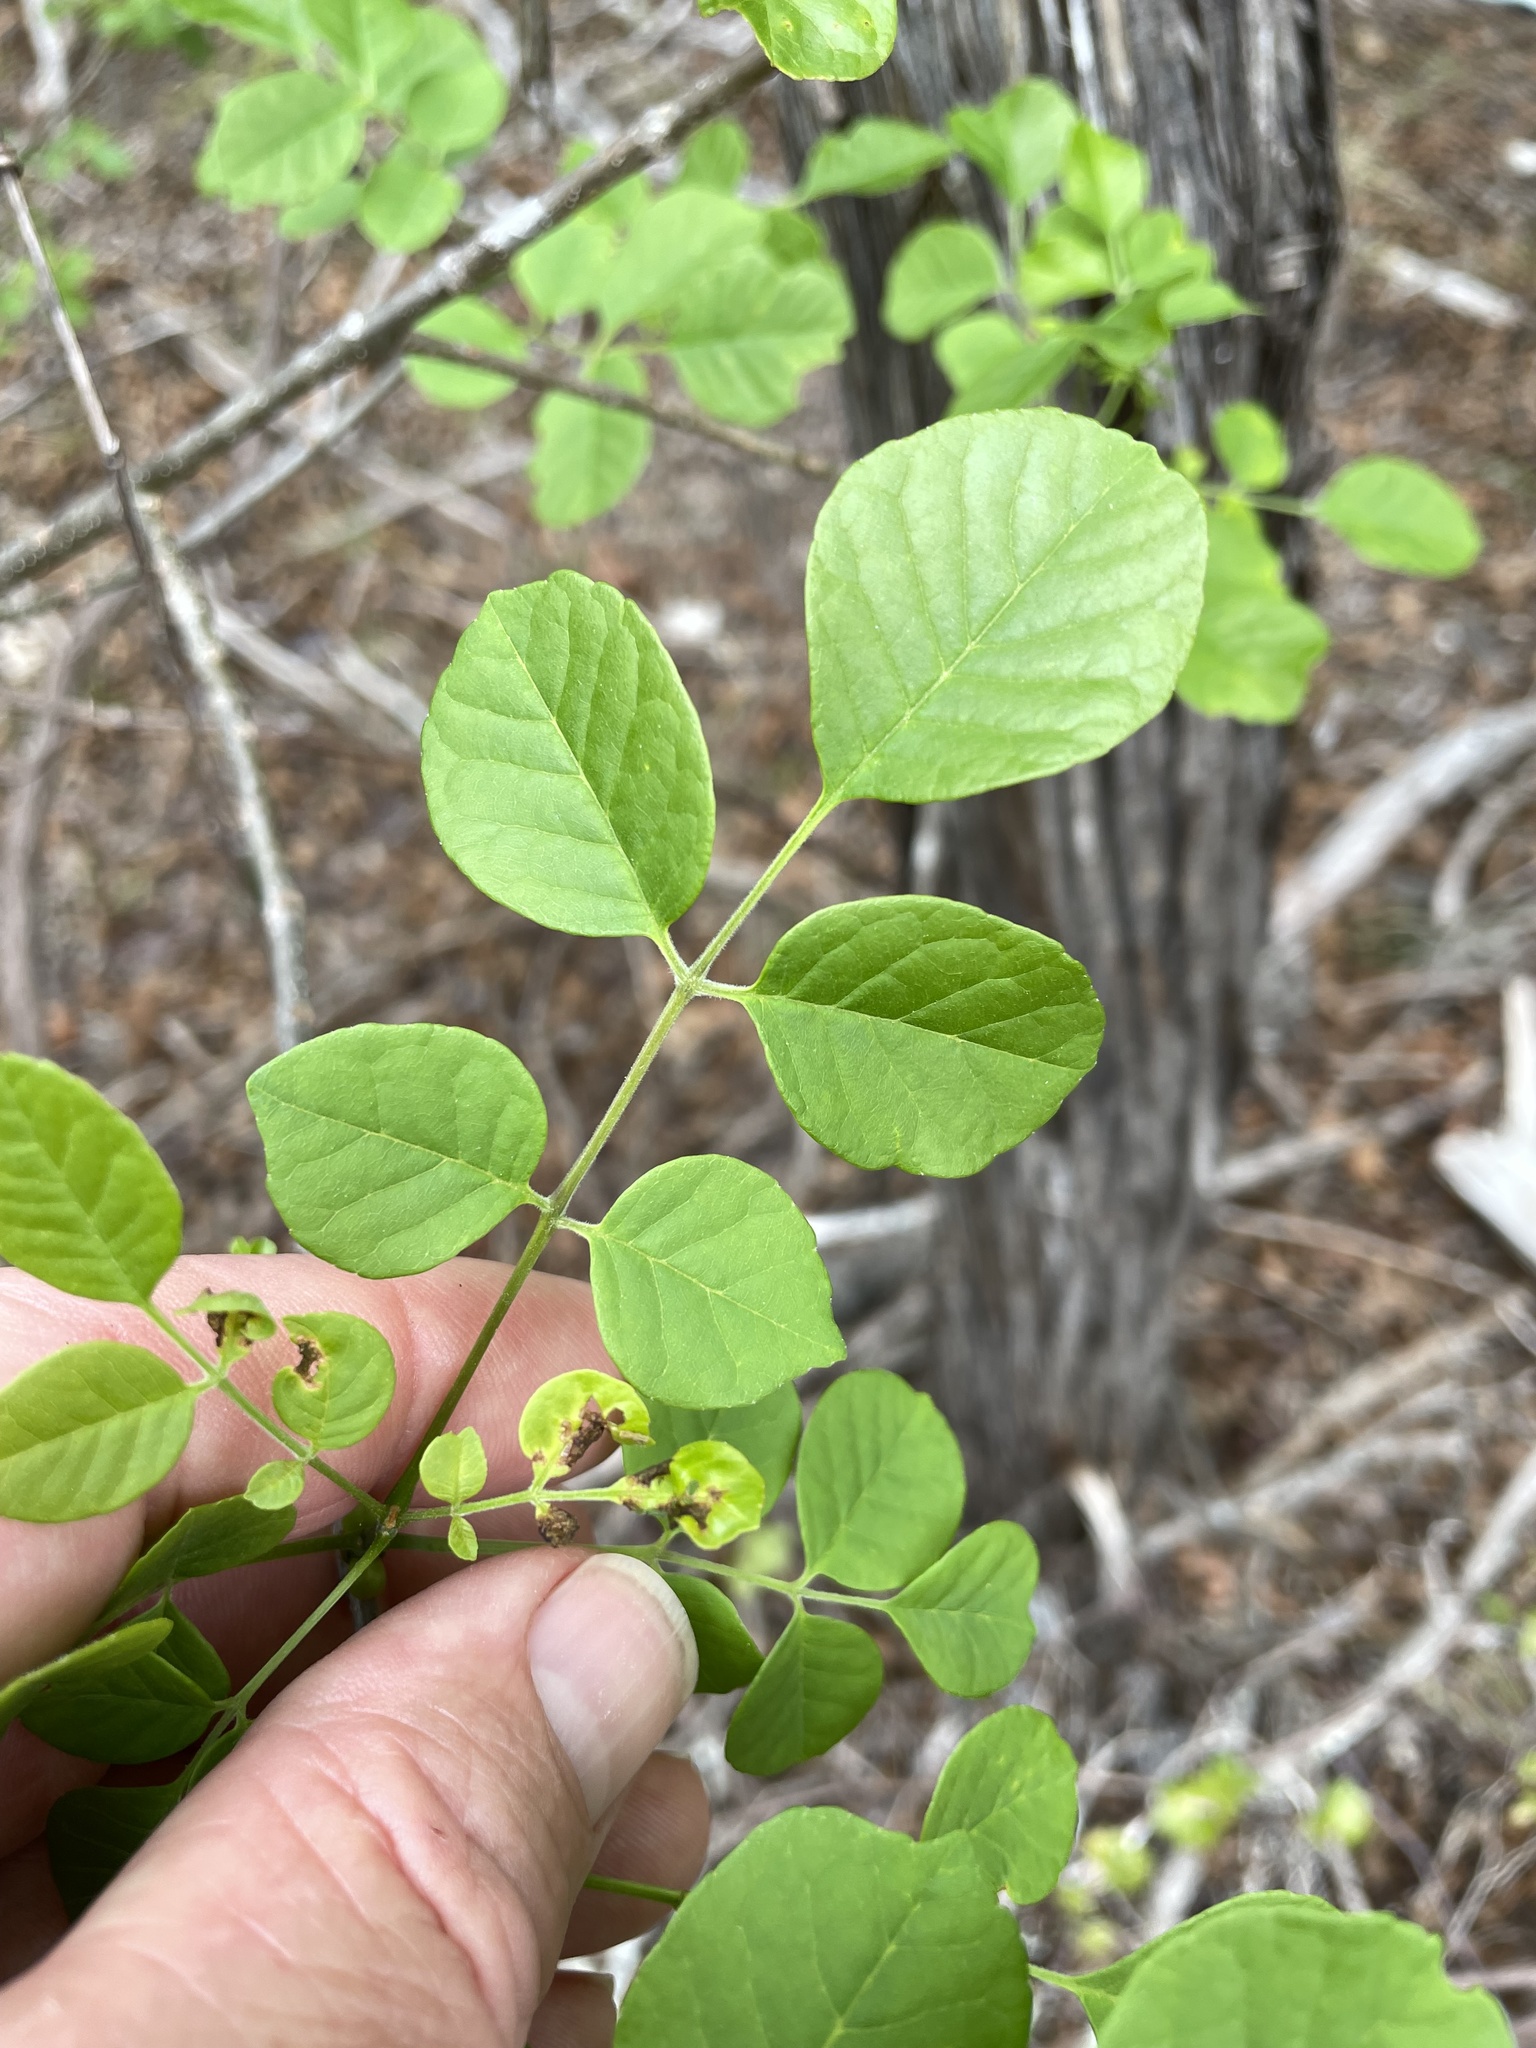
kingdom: Plantae
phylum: Tracheophyta
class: Magnoliopsida
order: Lamiales
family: Oleaceae
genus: Fraxinus
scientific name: Fraxinus albicans
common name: Texas ash
